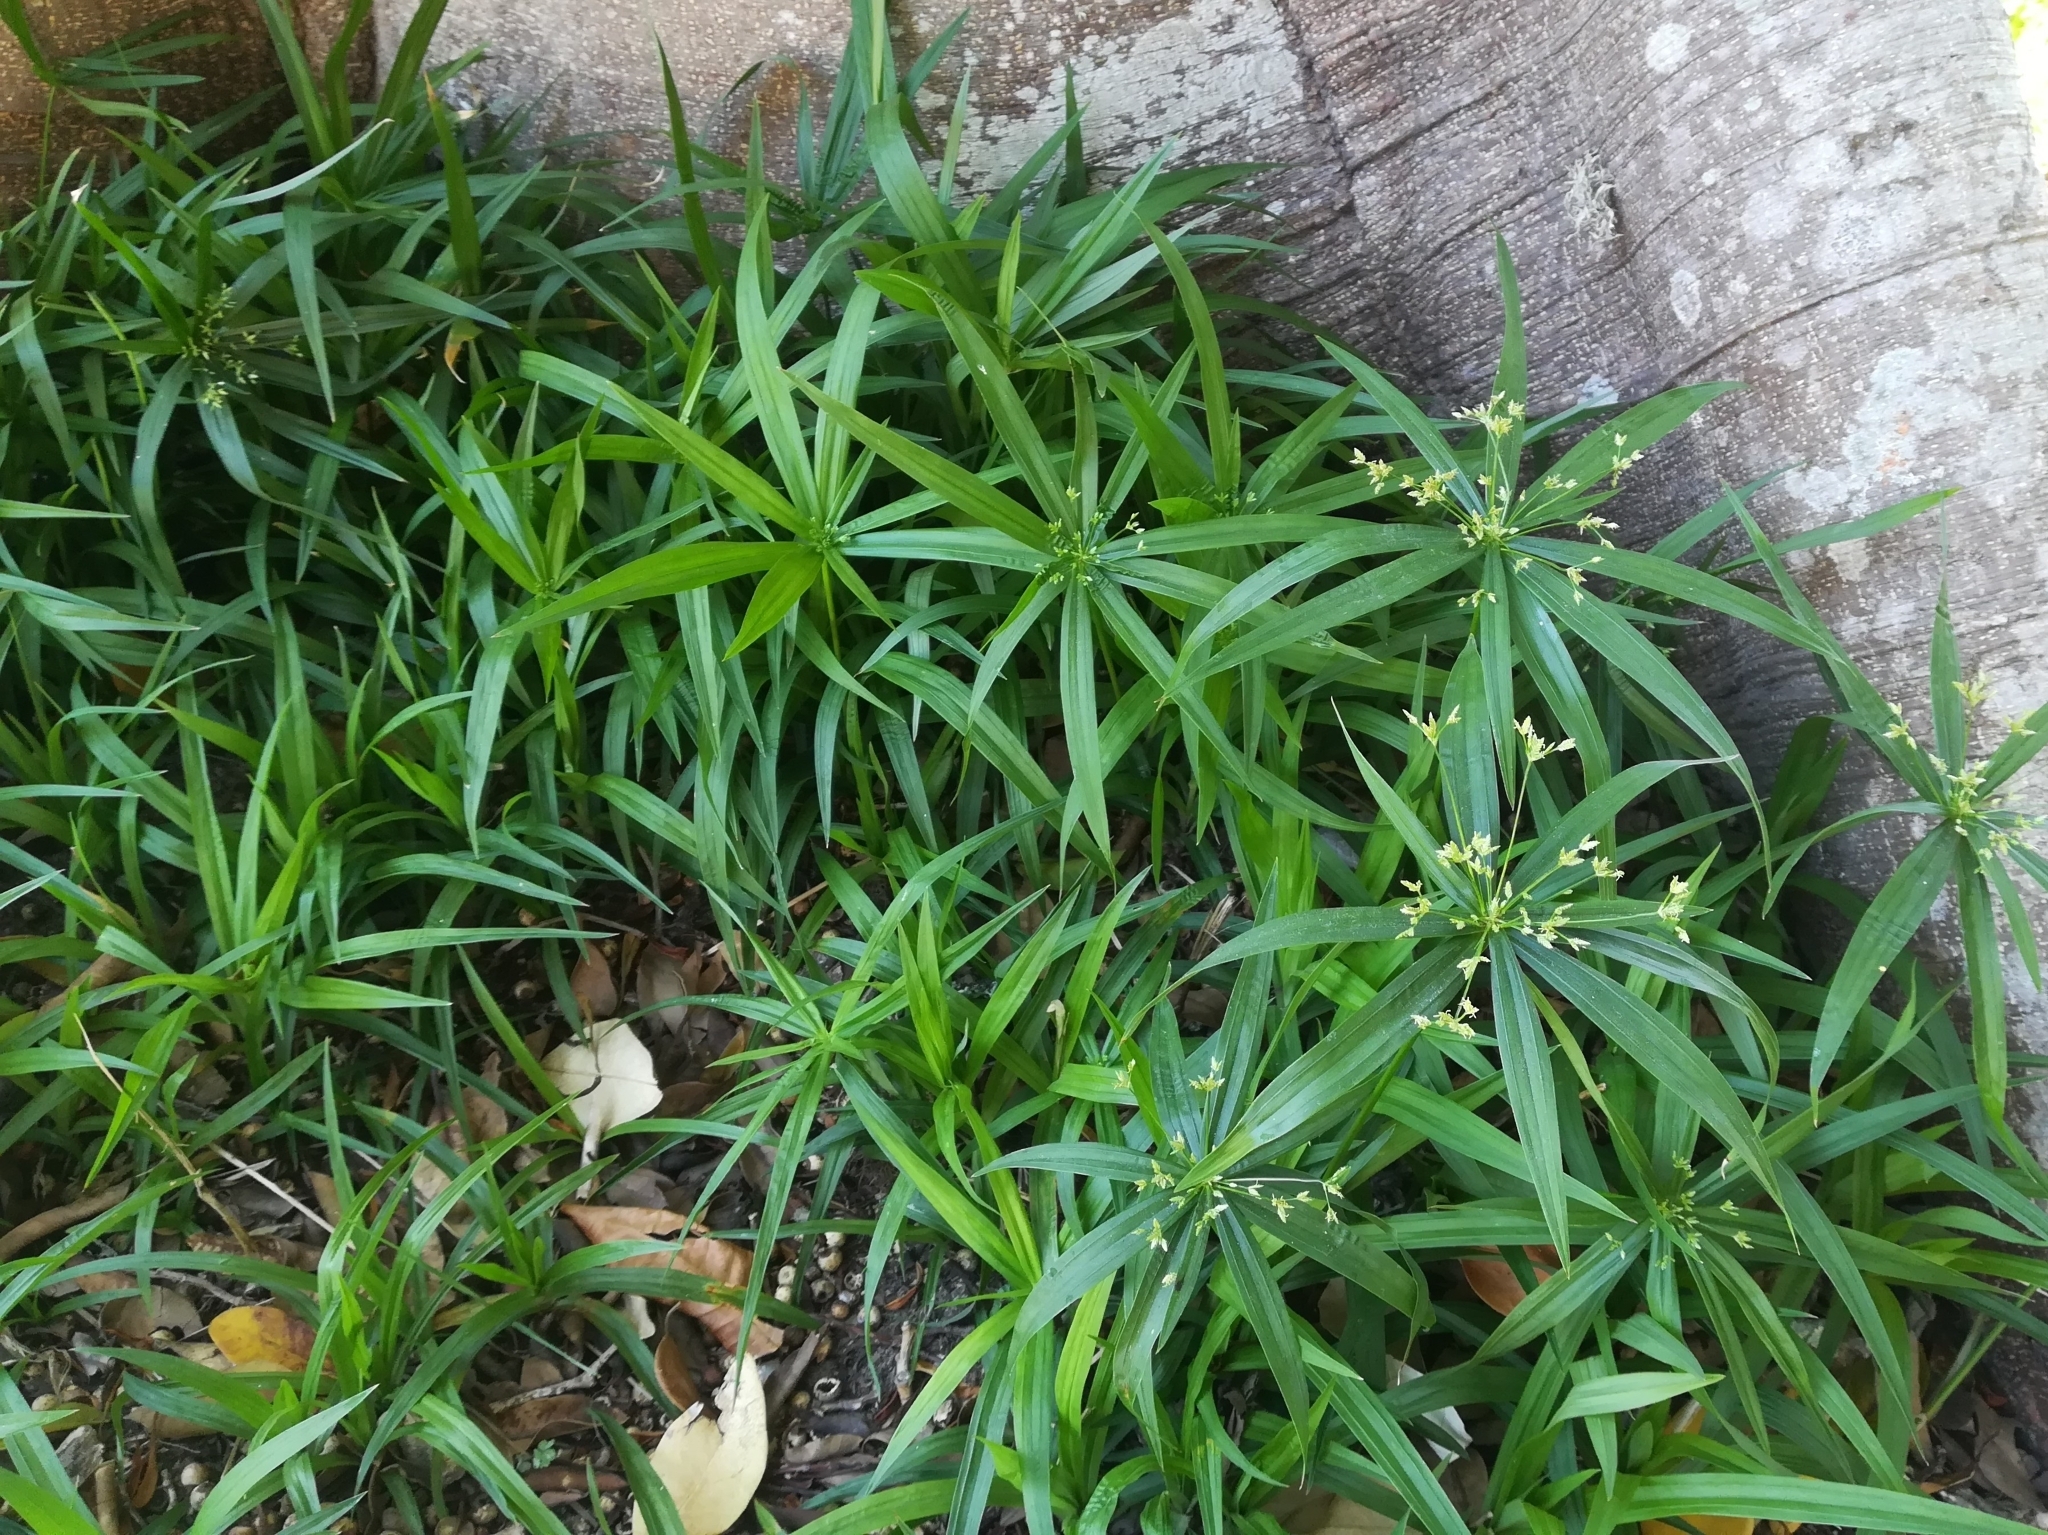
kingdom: Plantae
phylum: Tracheophyta
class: Liliopsida
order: Poales
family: Cyperaceae
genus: Cyperus
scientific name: Cyperus albostriatus
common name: Dwarf umbrella-grass
